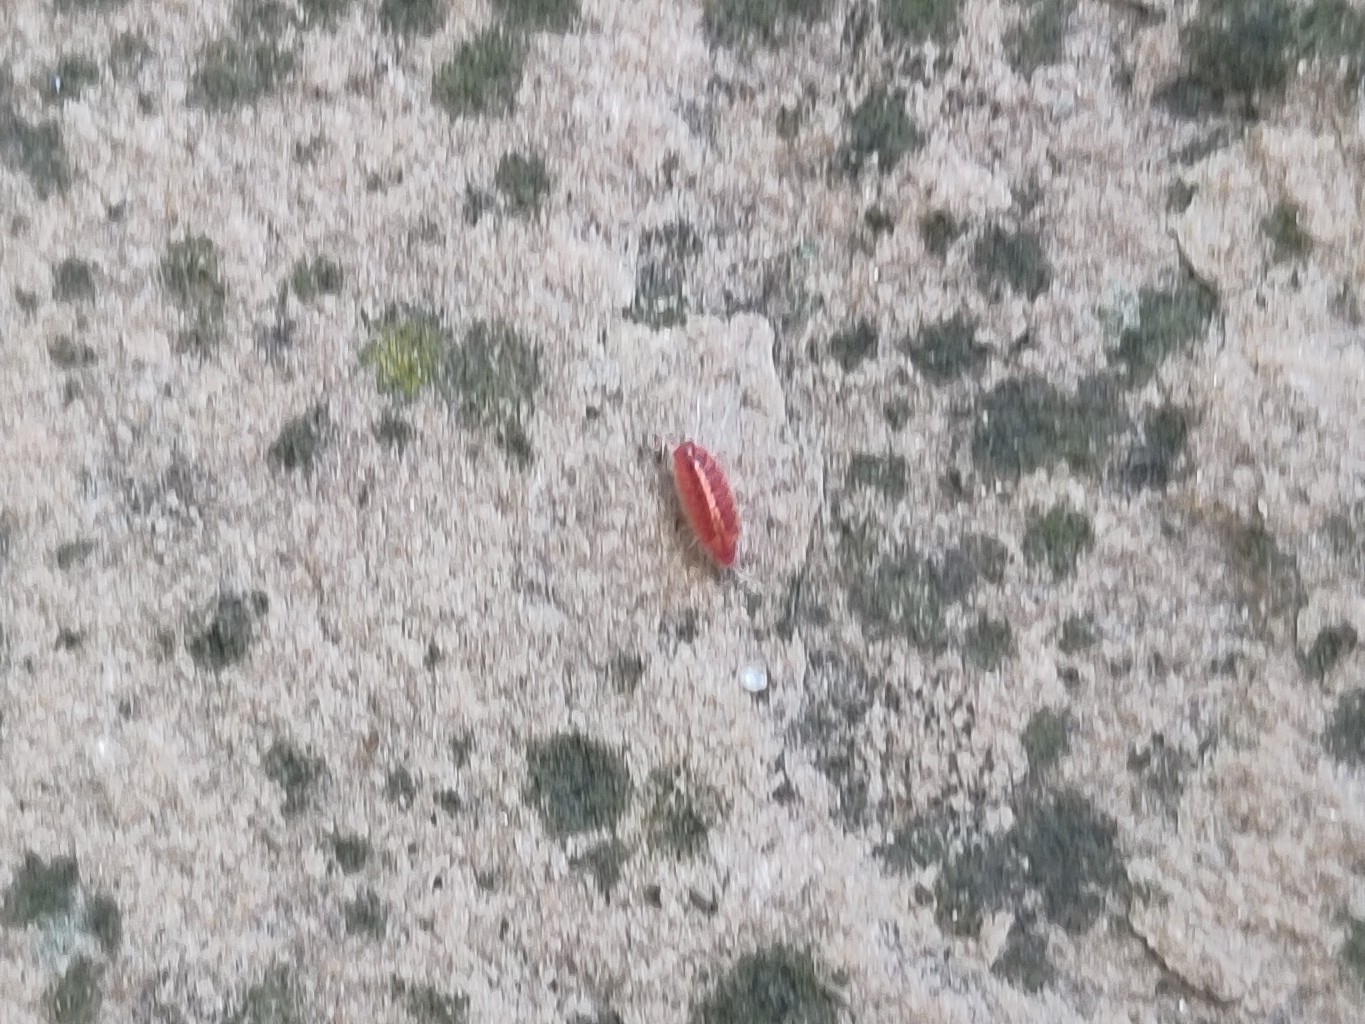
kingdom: Animalia
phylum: Arthropoda
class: Malacostraca
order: Isopoda
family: Trichoniscidae
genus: Androniscus
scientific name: Androniscus dentiger
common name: Rosy woodlouse
